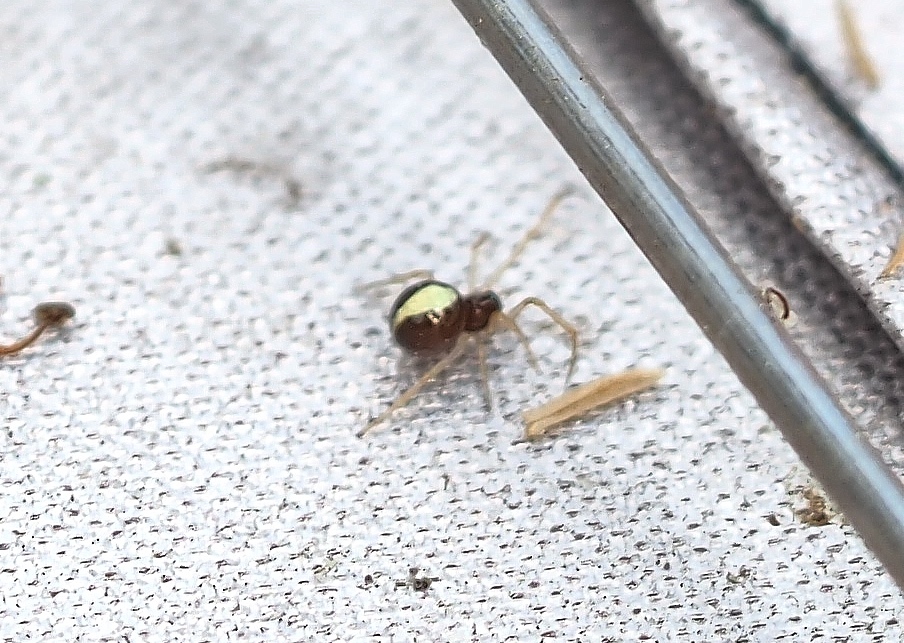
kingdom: Animalia
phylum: Arthropoda
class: Arachnida
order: Araneae
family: Theridiidae
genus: Neottiura
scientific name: Neottiura bimaculata
